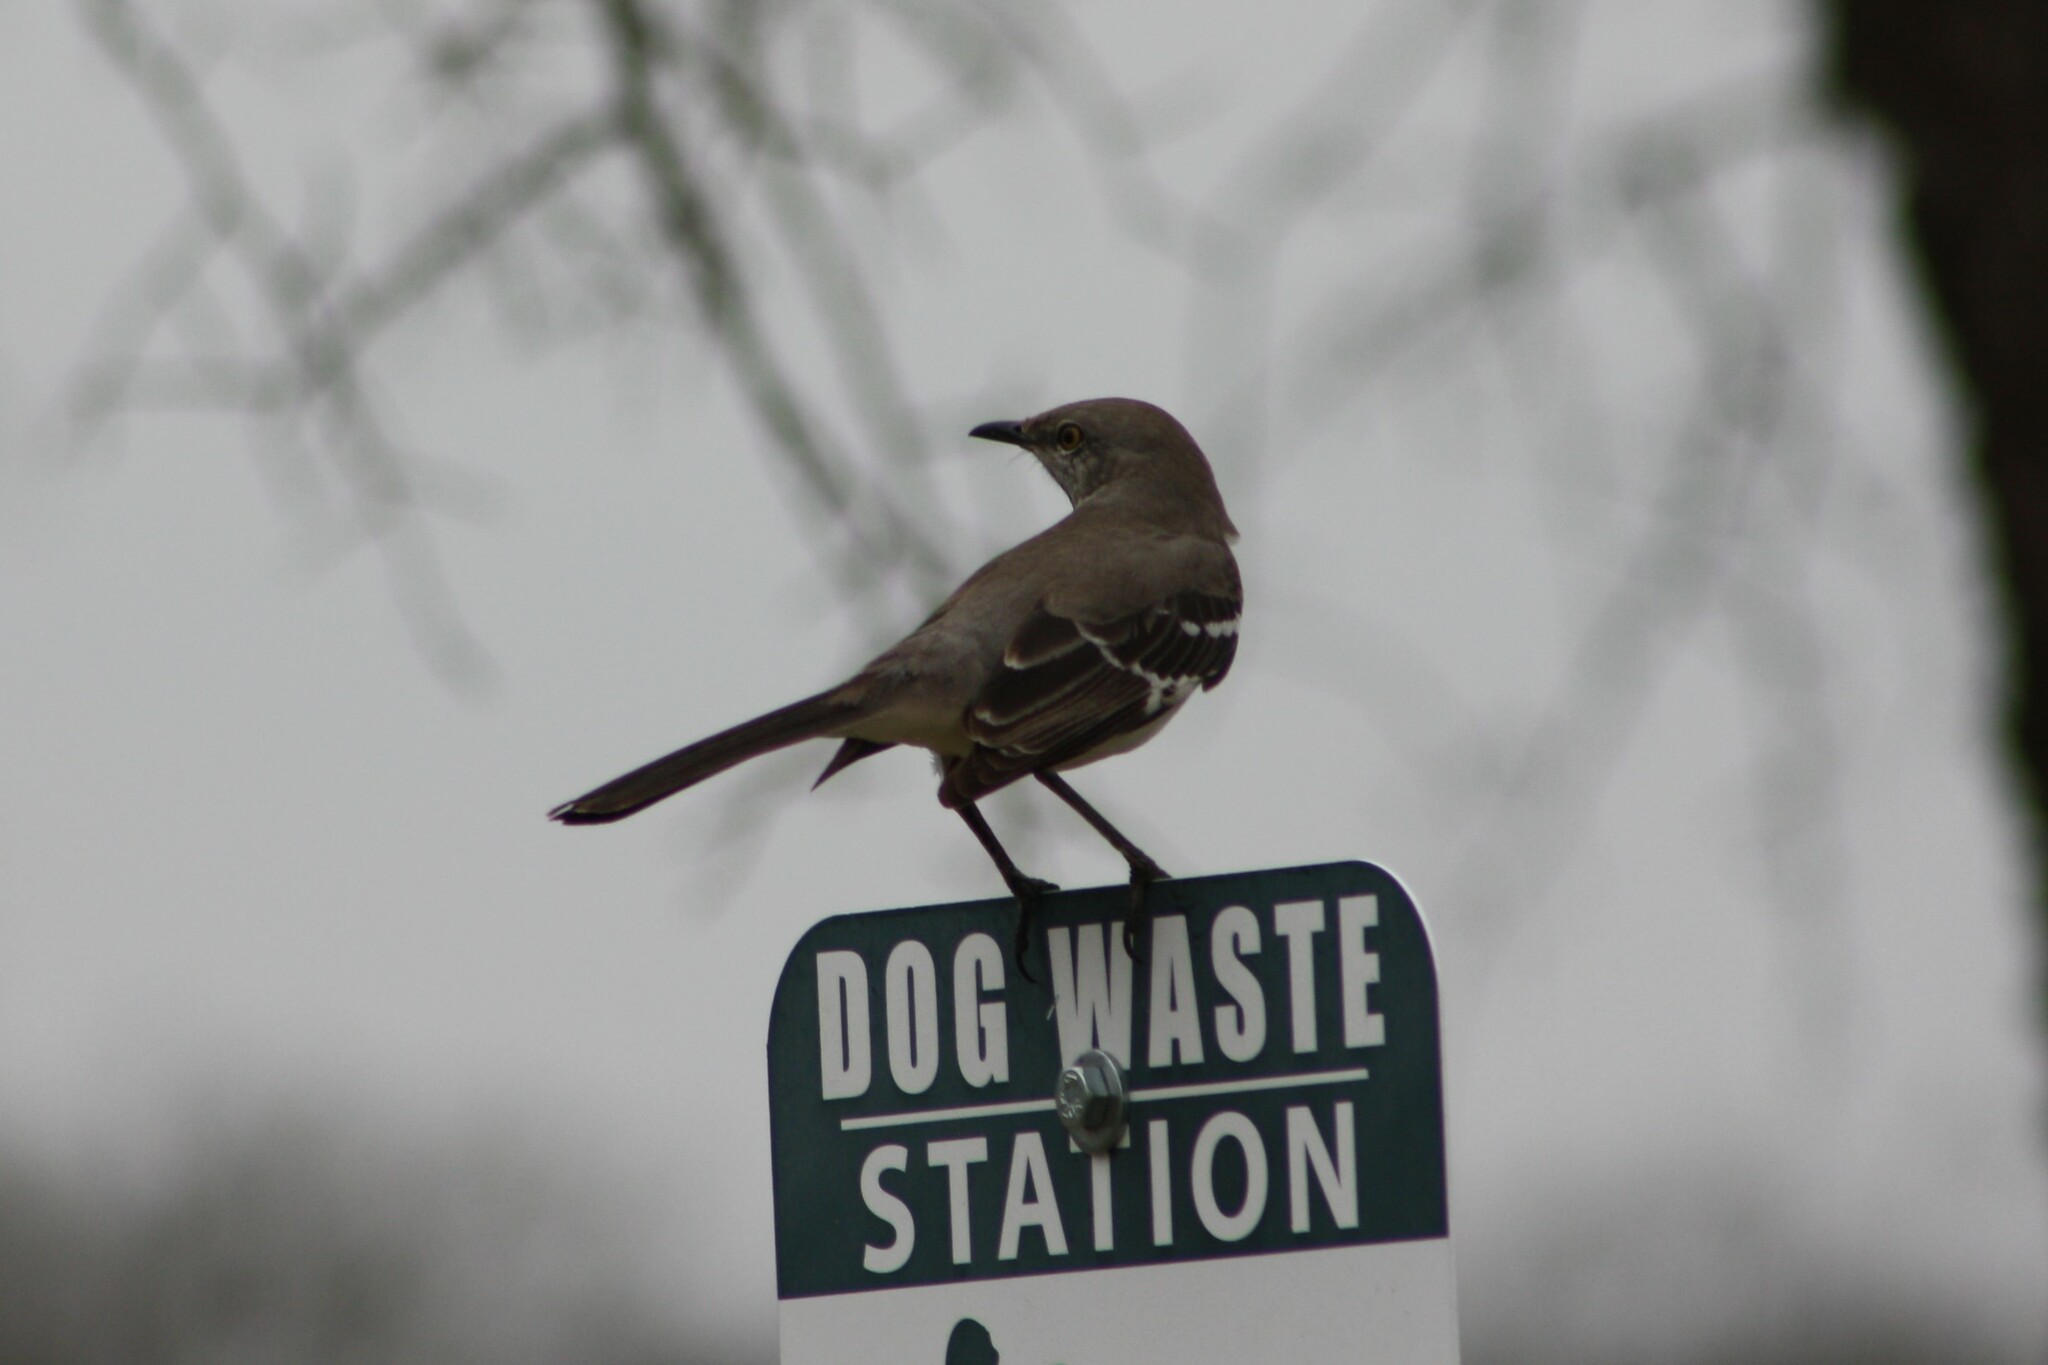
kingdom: Animalia
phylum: Chordata
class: Aves
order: Passeriformes
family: Mimidae
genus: Mimus
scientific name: Mimus polyglottos
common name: Northern mockingbird
